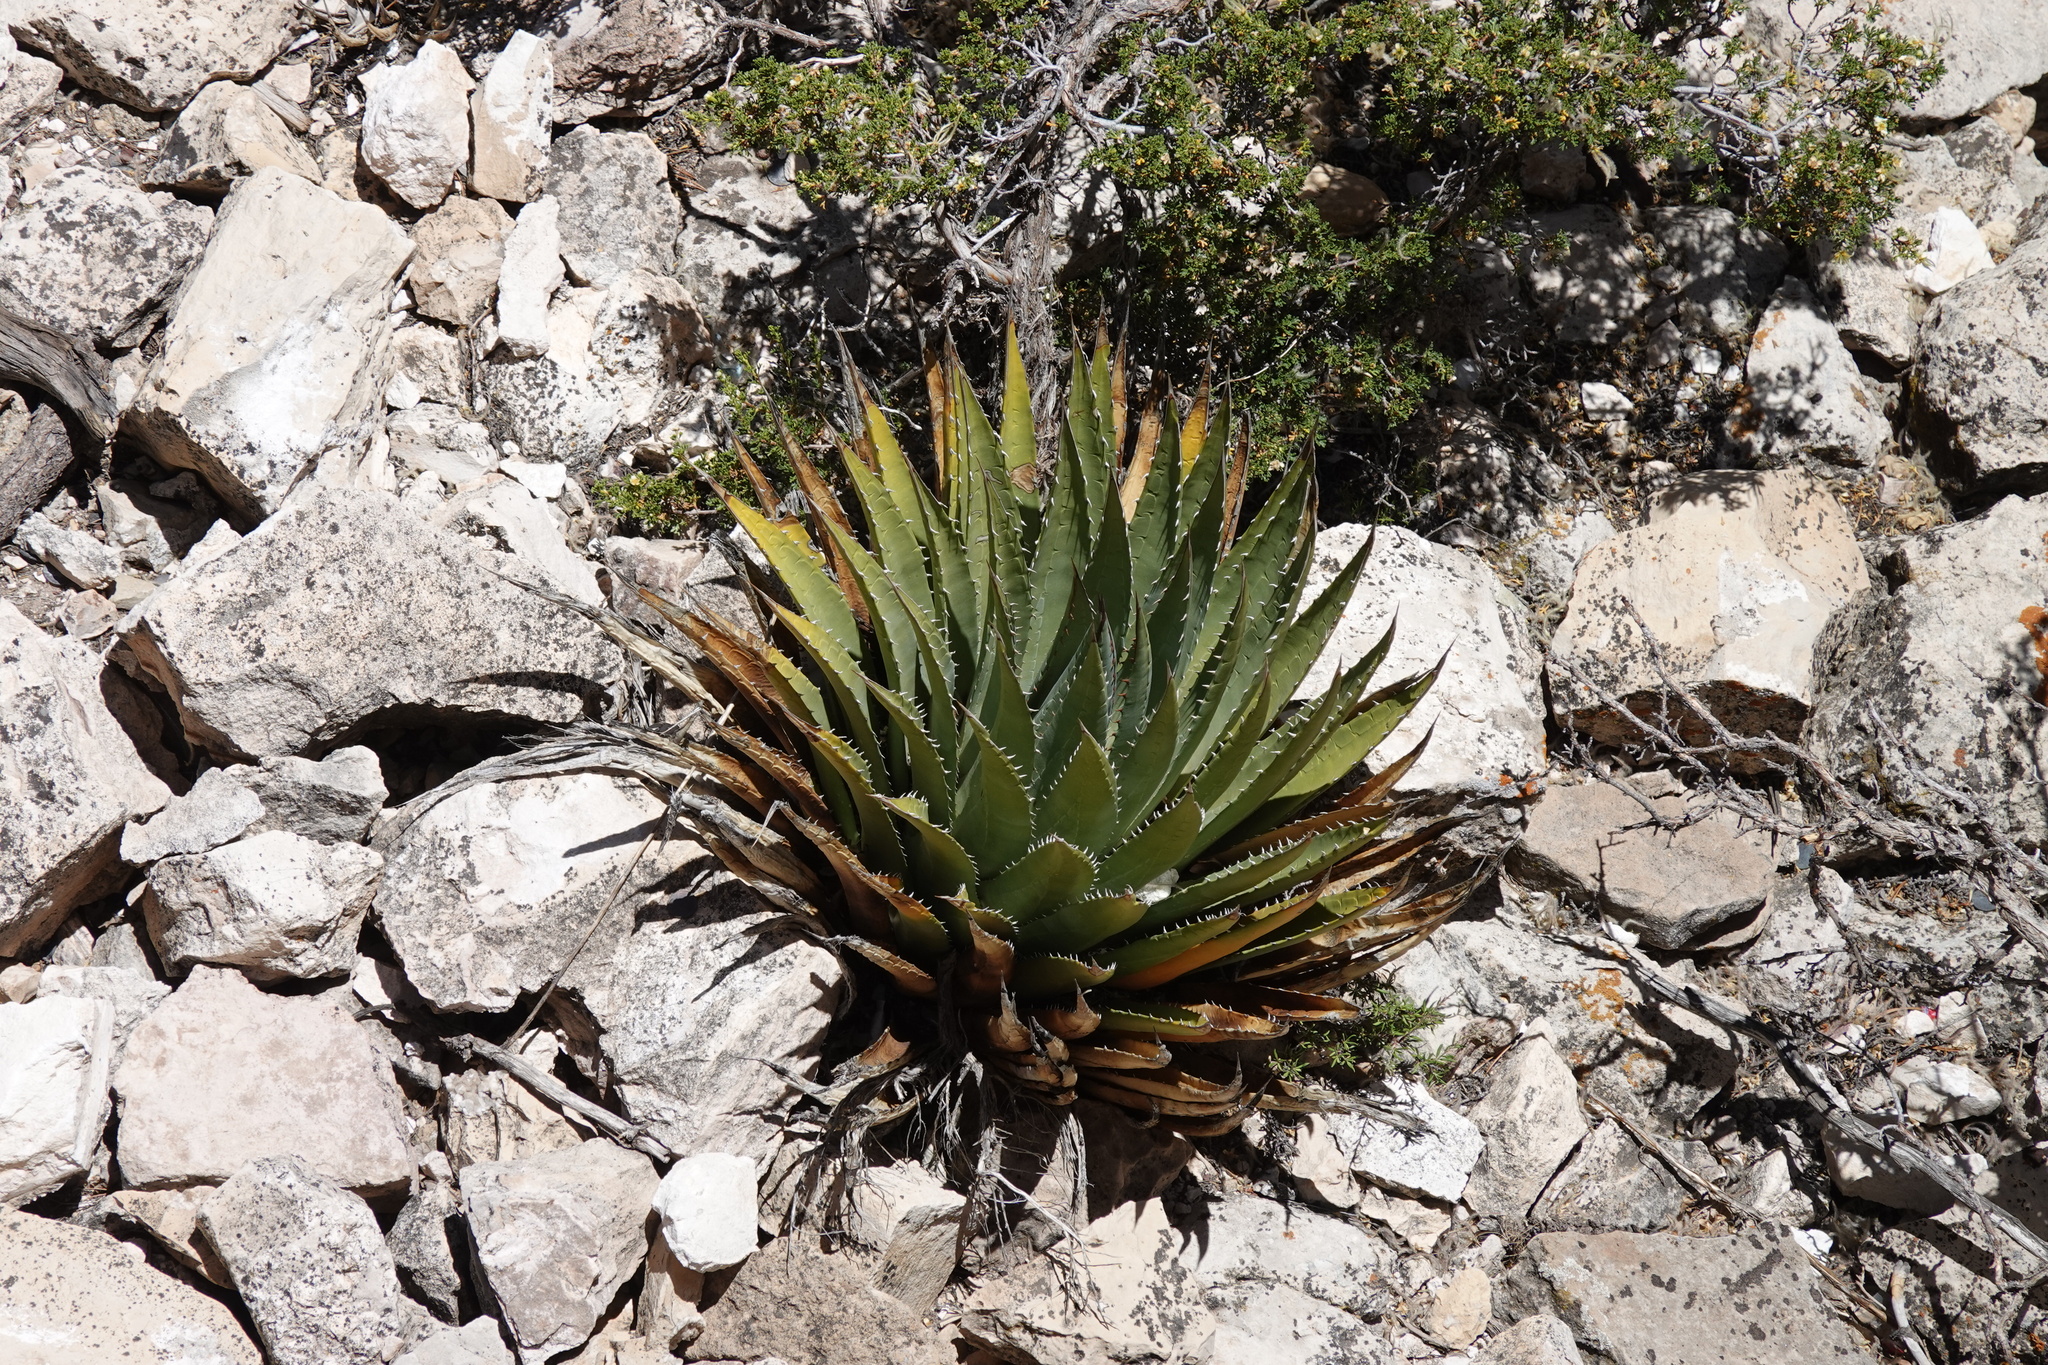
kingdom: Plantae
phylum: Tracheophyta
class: Liliopsida
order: Asparagales
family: Asparagaceae
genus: Agave
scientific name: Agave utahensis
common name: Utah agave
